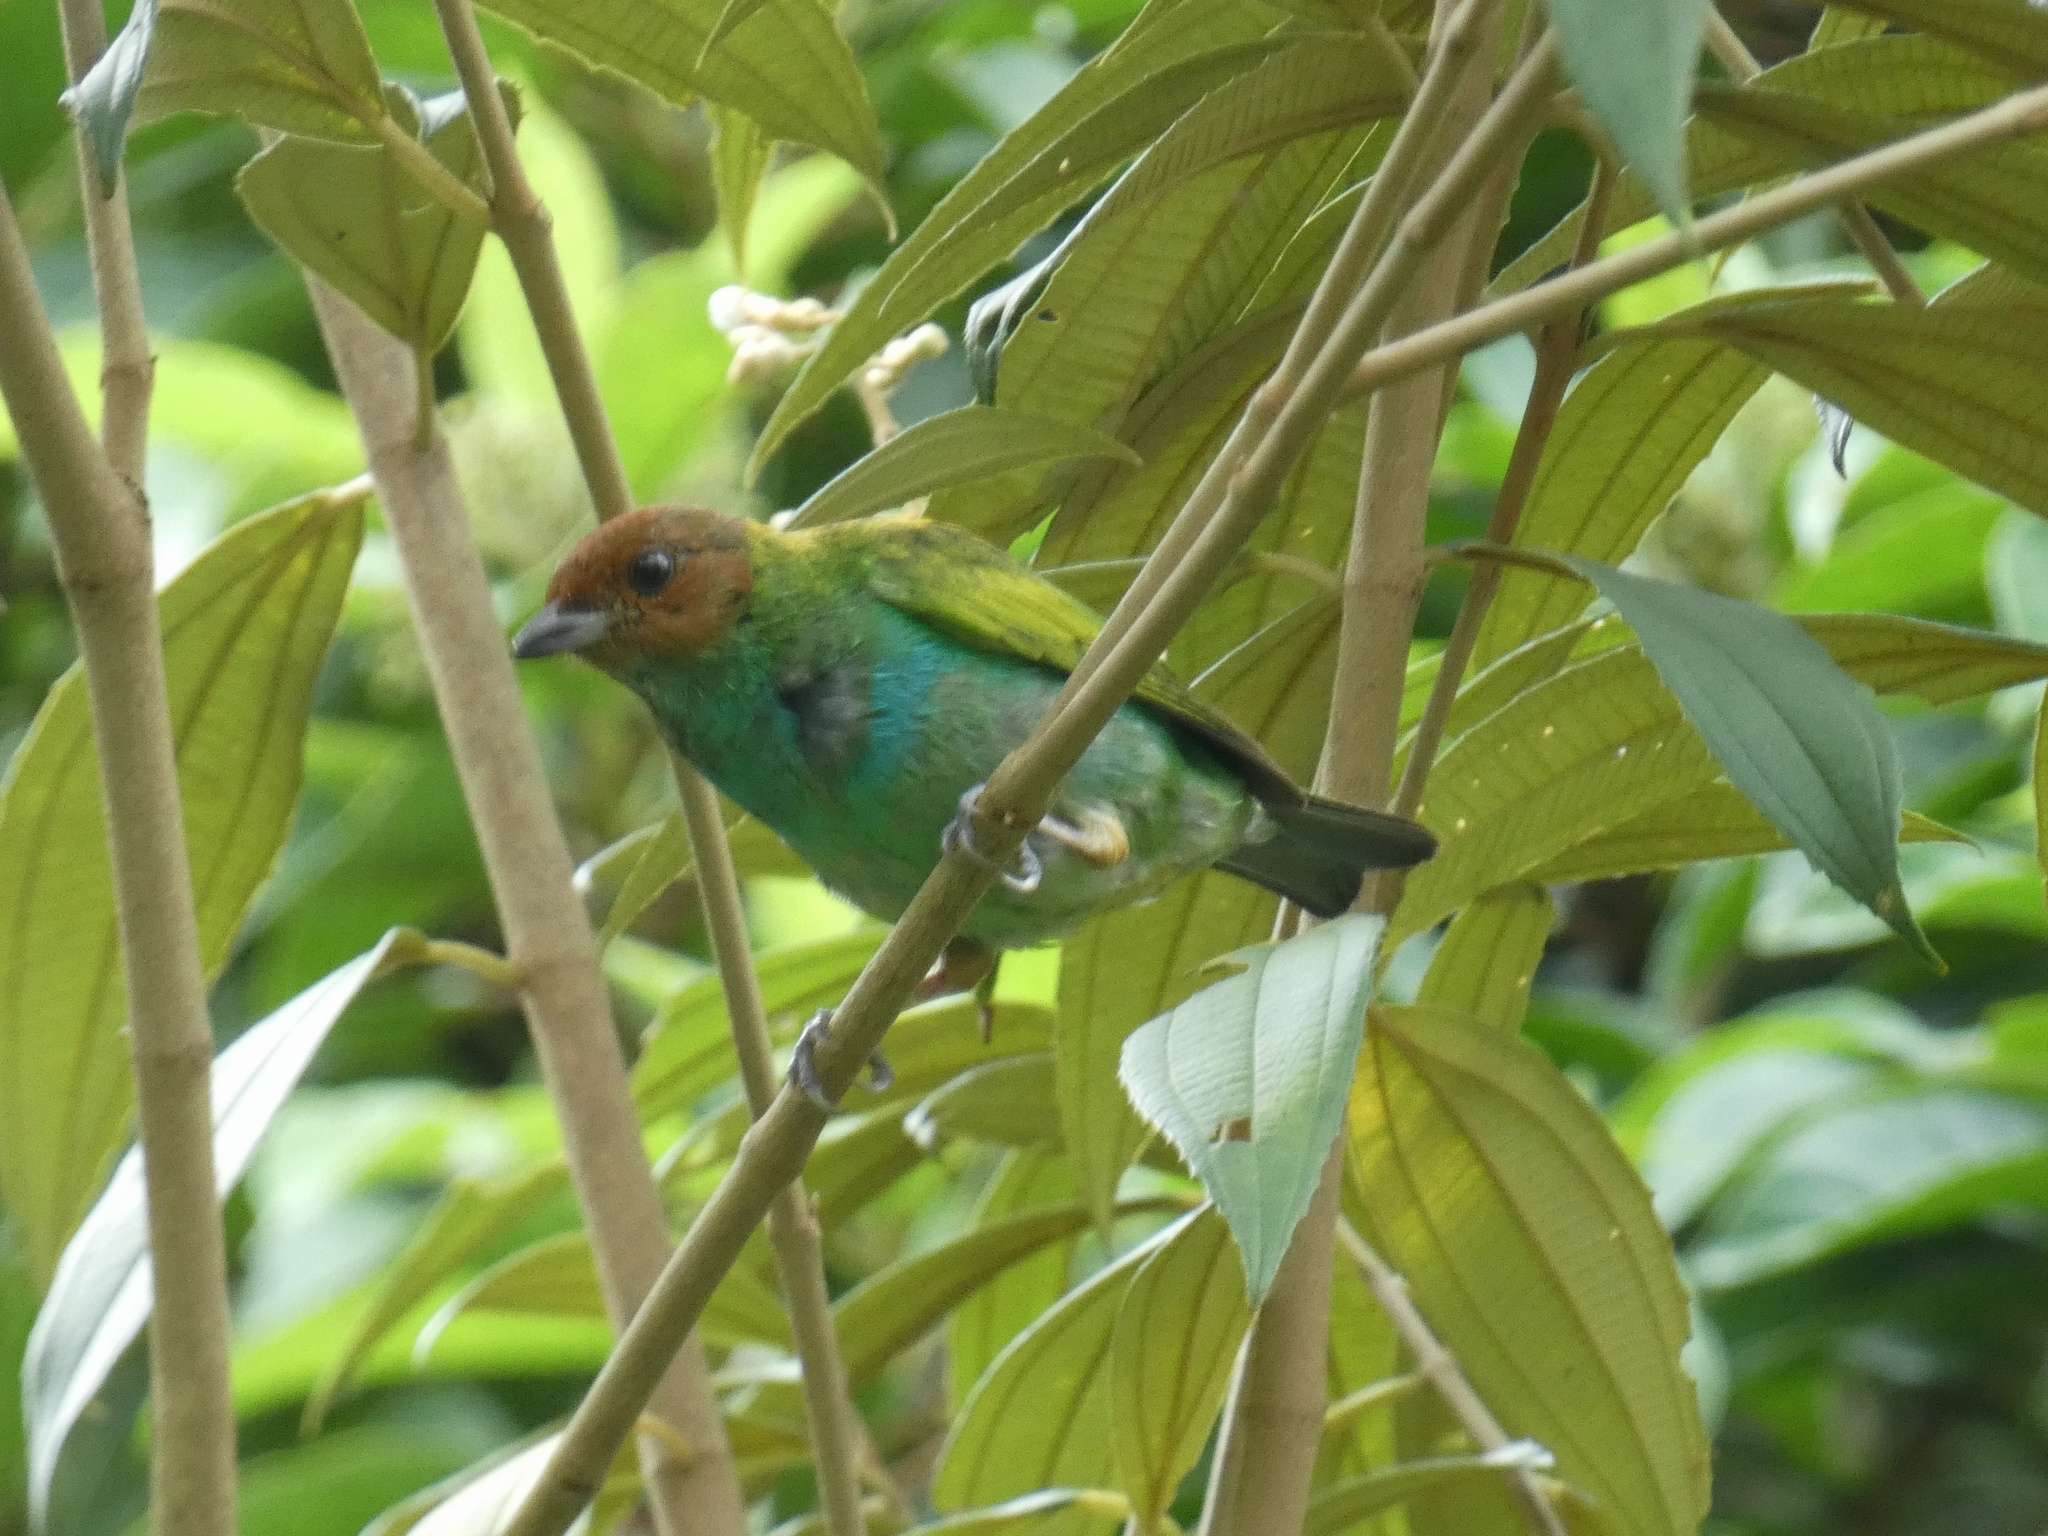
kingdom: Animalia
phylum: Chordata
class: Aves
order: Passeriformes
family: Thraupidae
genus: Tangara
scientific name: Tangara gyrola
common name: Bay-headed tanager
